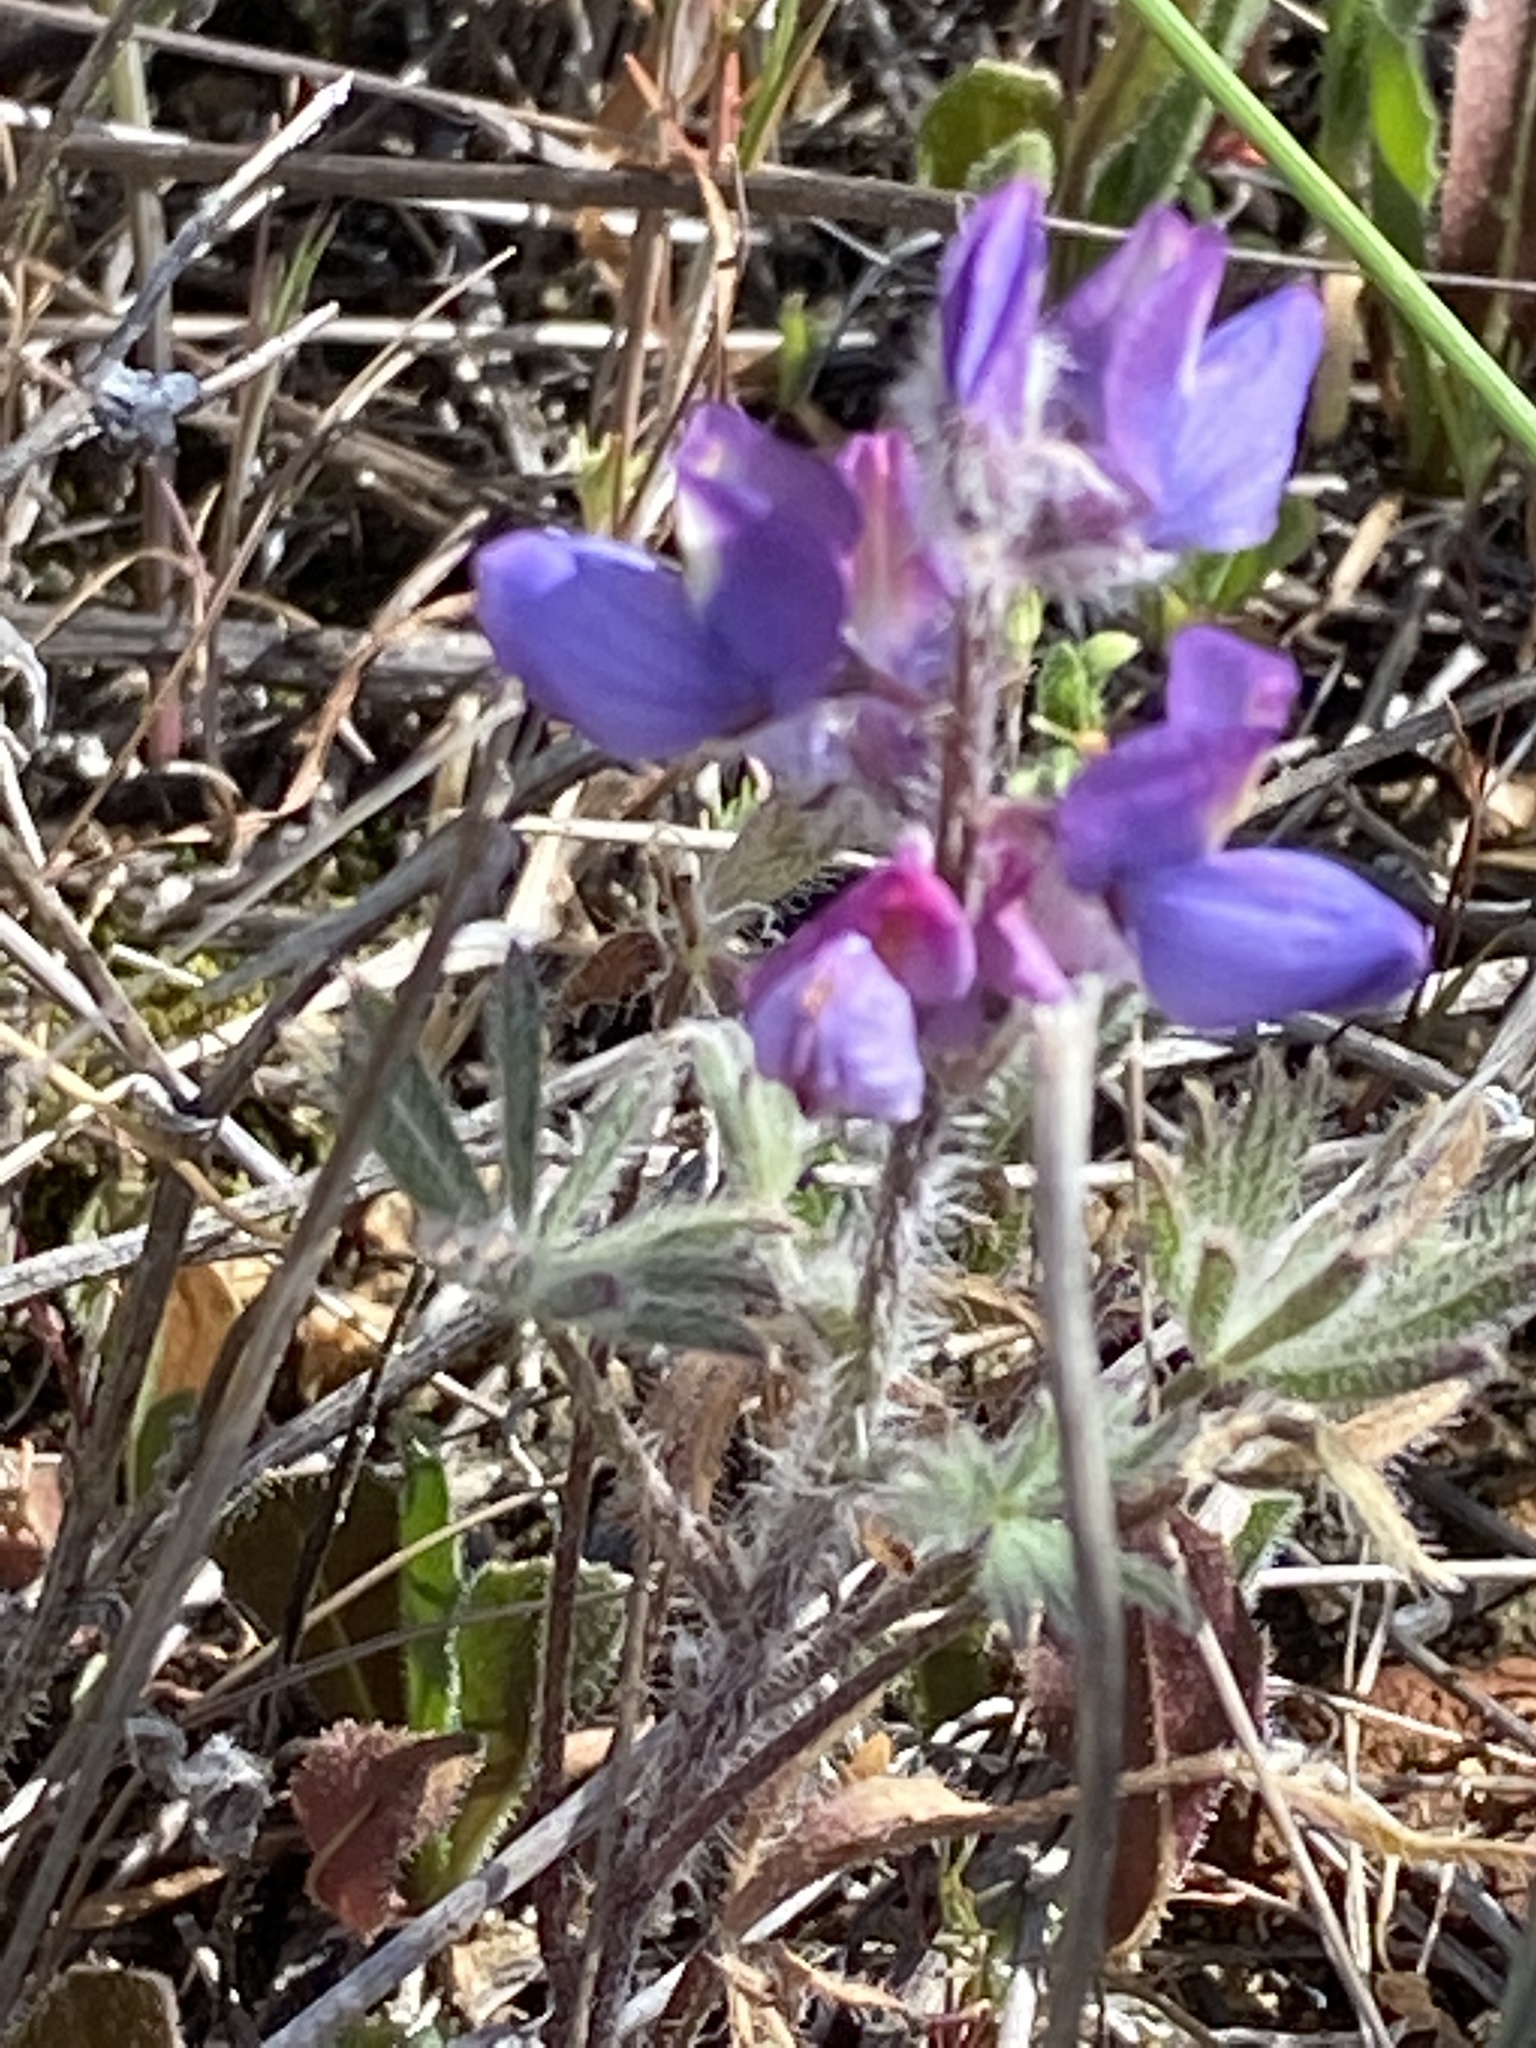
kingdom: Plantae
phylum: Tracheophyta
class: Magnoliopsida
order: Fabales
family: Fabaceae
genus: Lupinus
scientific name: Lupinus sparsiflorus
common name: Coulter's lupine
